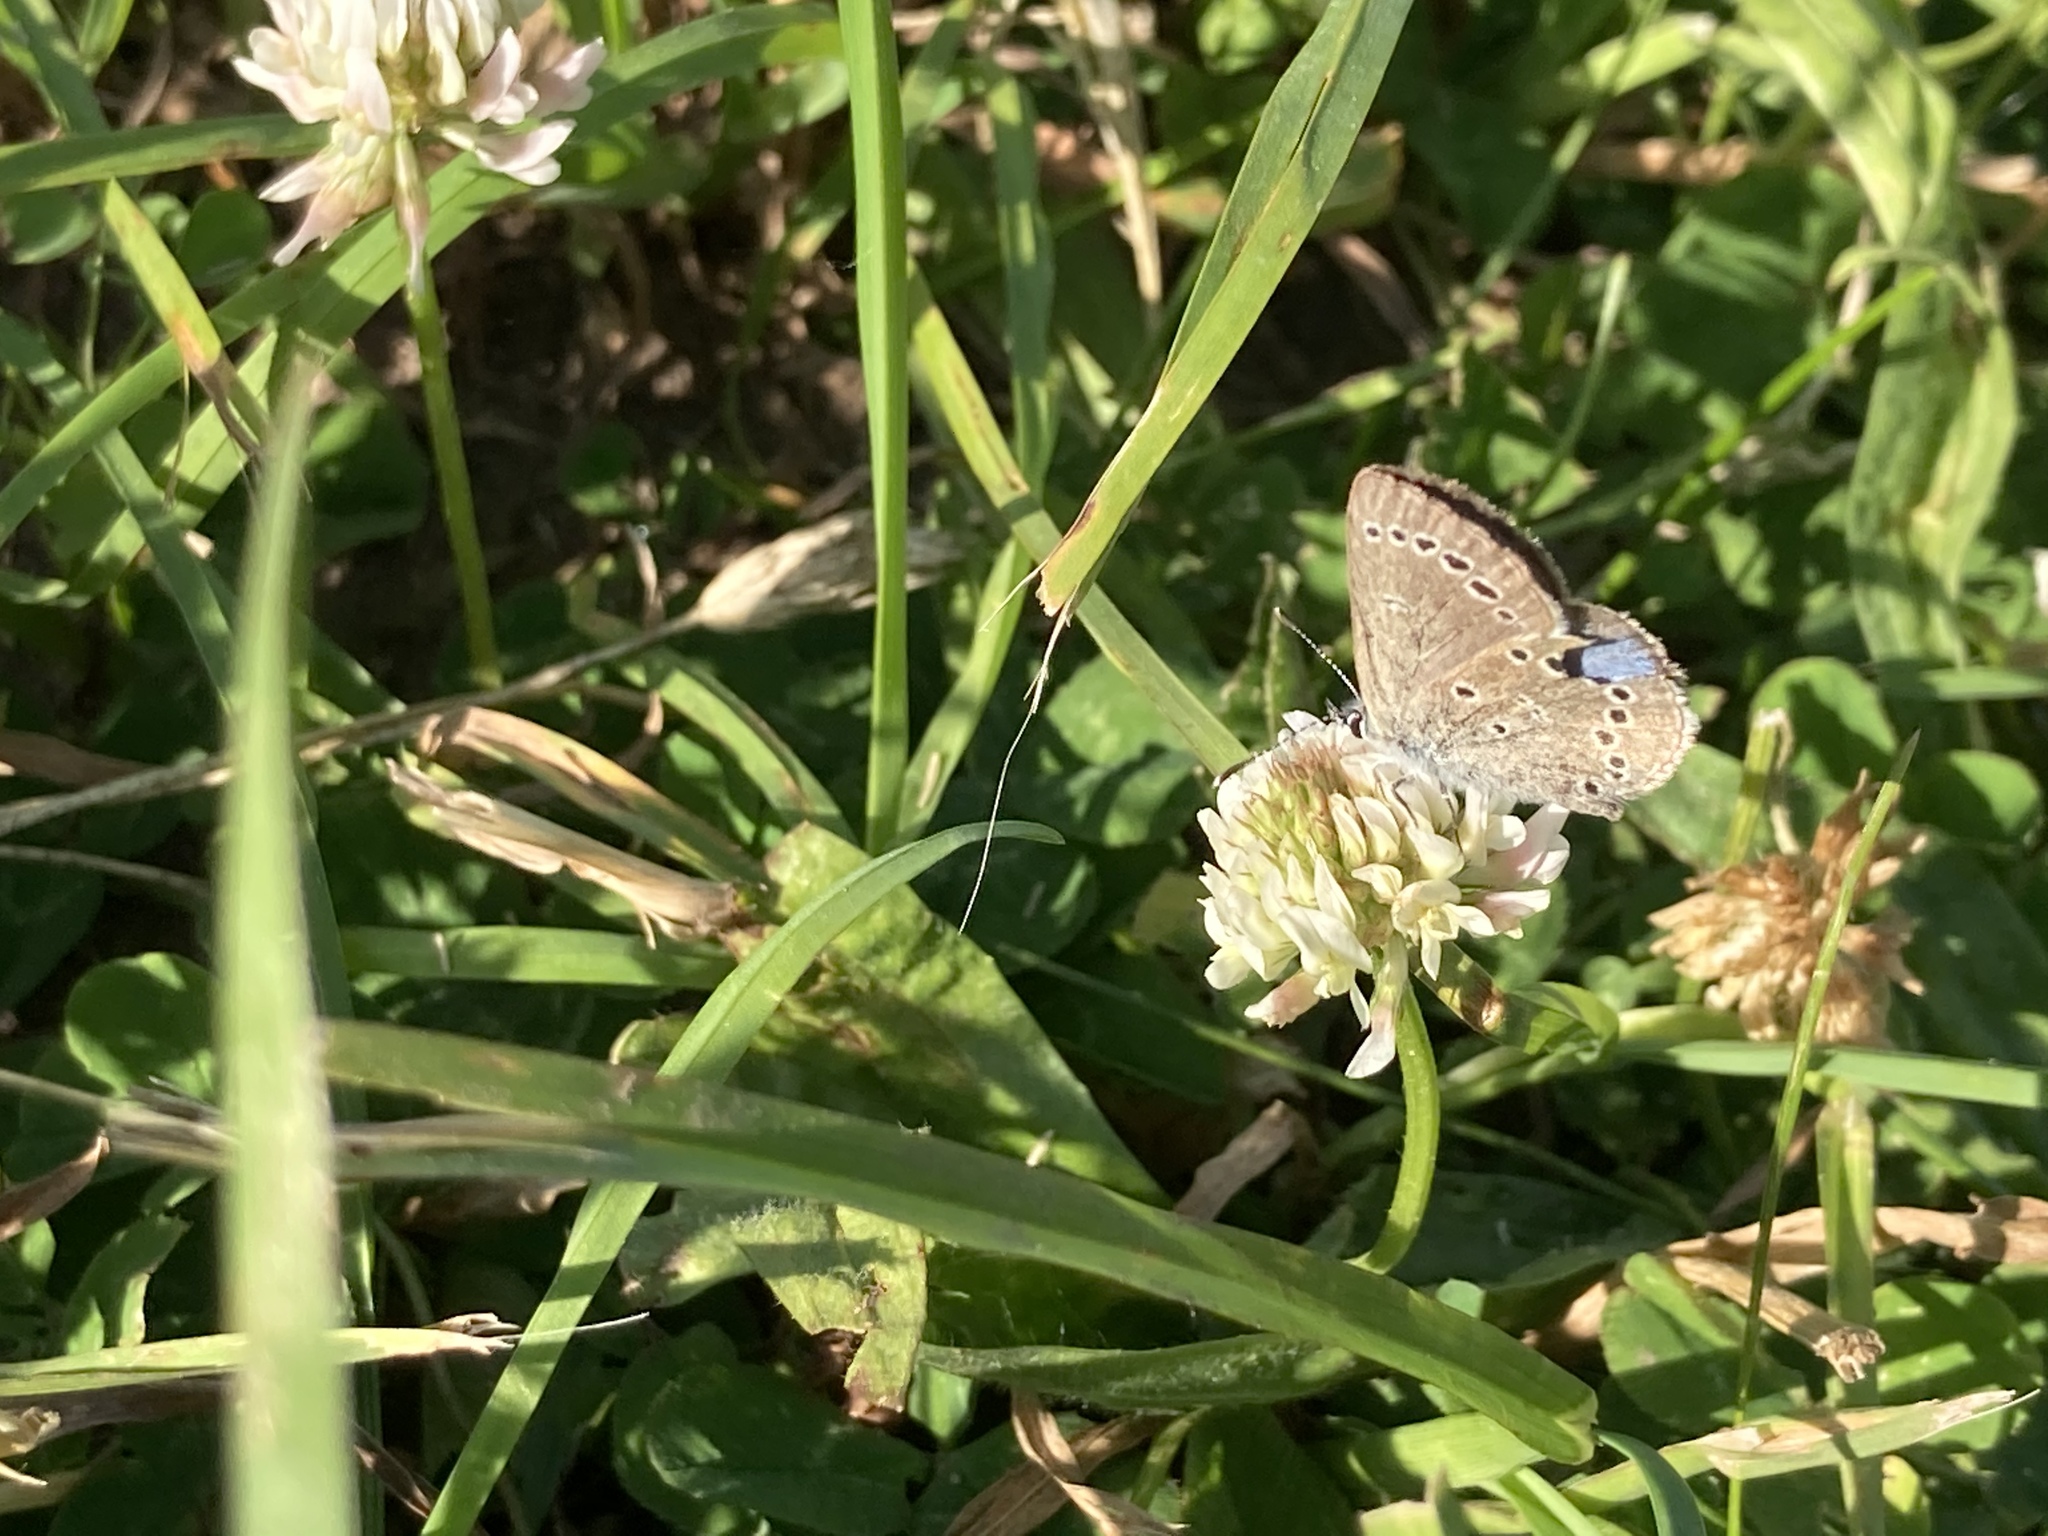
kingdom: Animalia
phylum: Arthropoda
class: Insecta
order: Lepidoptera
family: Lycaenidae
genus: Glaucopsyche
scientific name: Glaucopsyche lygdamus
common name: Silvery blue
